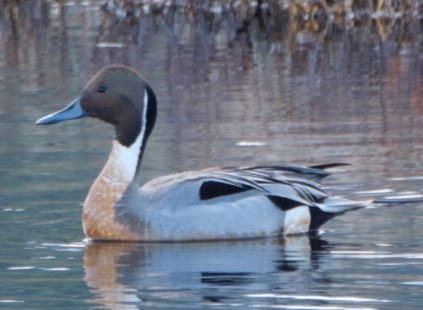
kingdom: Animalia
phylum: Chordata
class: Aves
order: Anseriformes
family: Anatidae
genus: Anas
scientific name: Anas acuta
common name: Northern pintail
